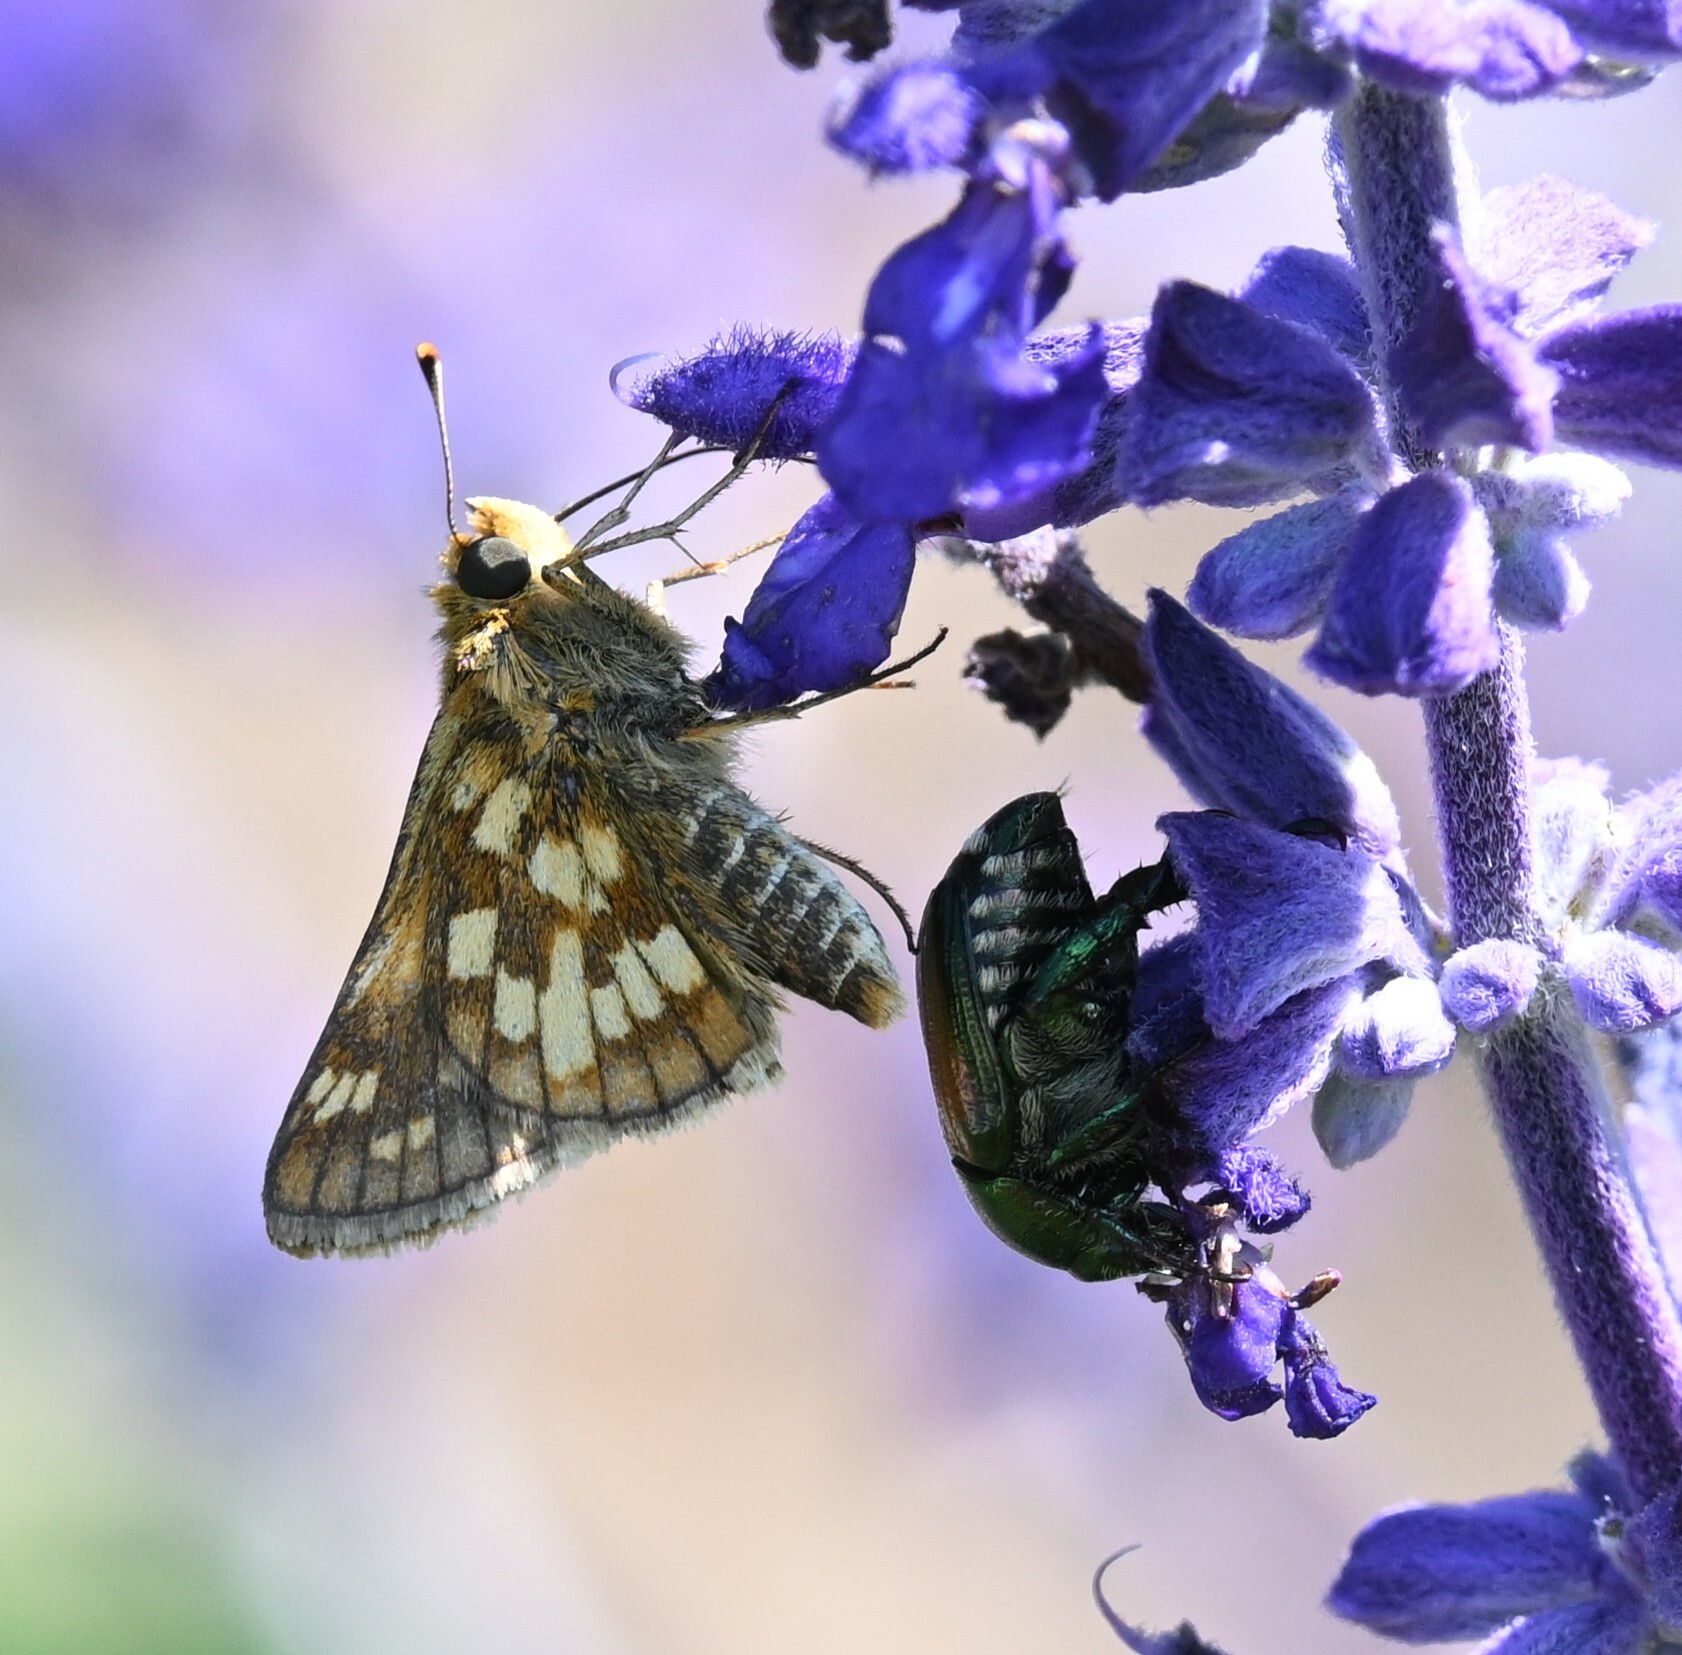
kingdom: Animalia
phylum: Arthropoda
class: Insecta
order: Lepidoptera
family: Hesperiidae
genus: Polites
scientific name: Polites coras
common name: Peck's skipper
